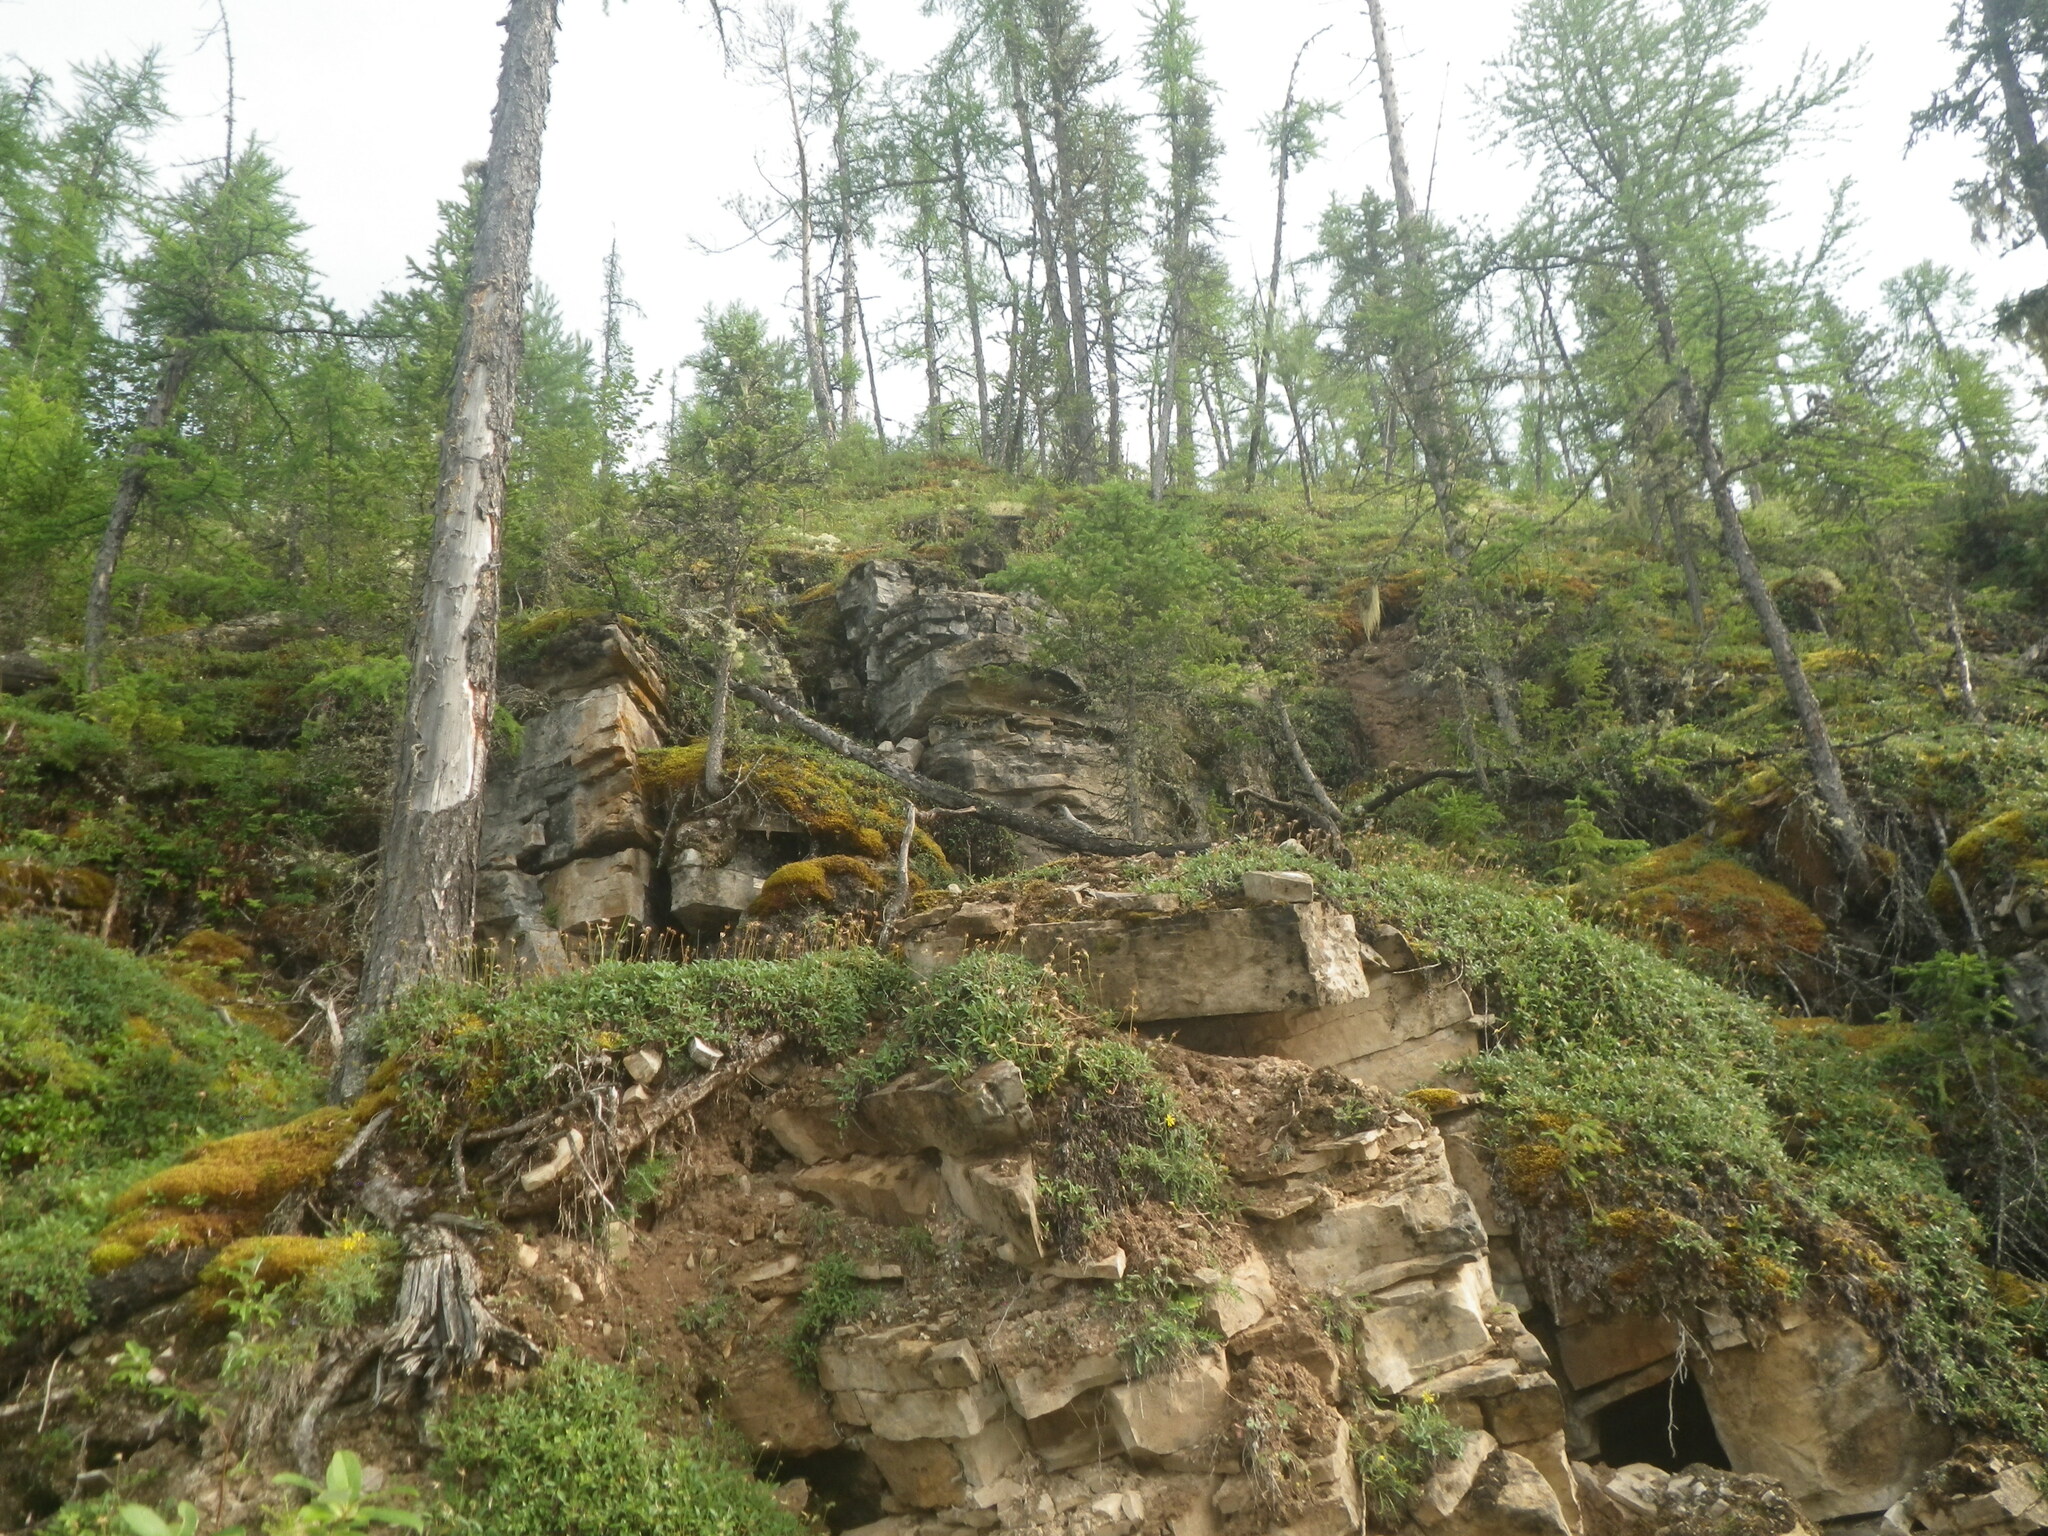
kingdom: Plantae
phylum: Tracheophyta
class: Pinopsida
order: Pinales
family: Pinaceae
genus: Larix
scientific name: Larix gmelinii
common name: Dahurian larch
